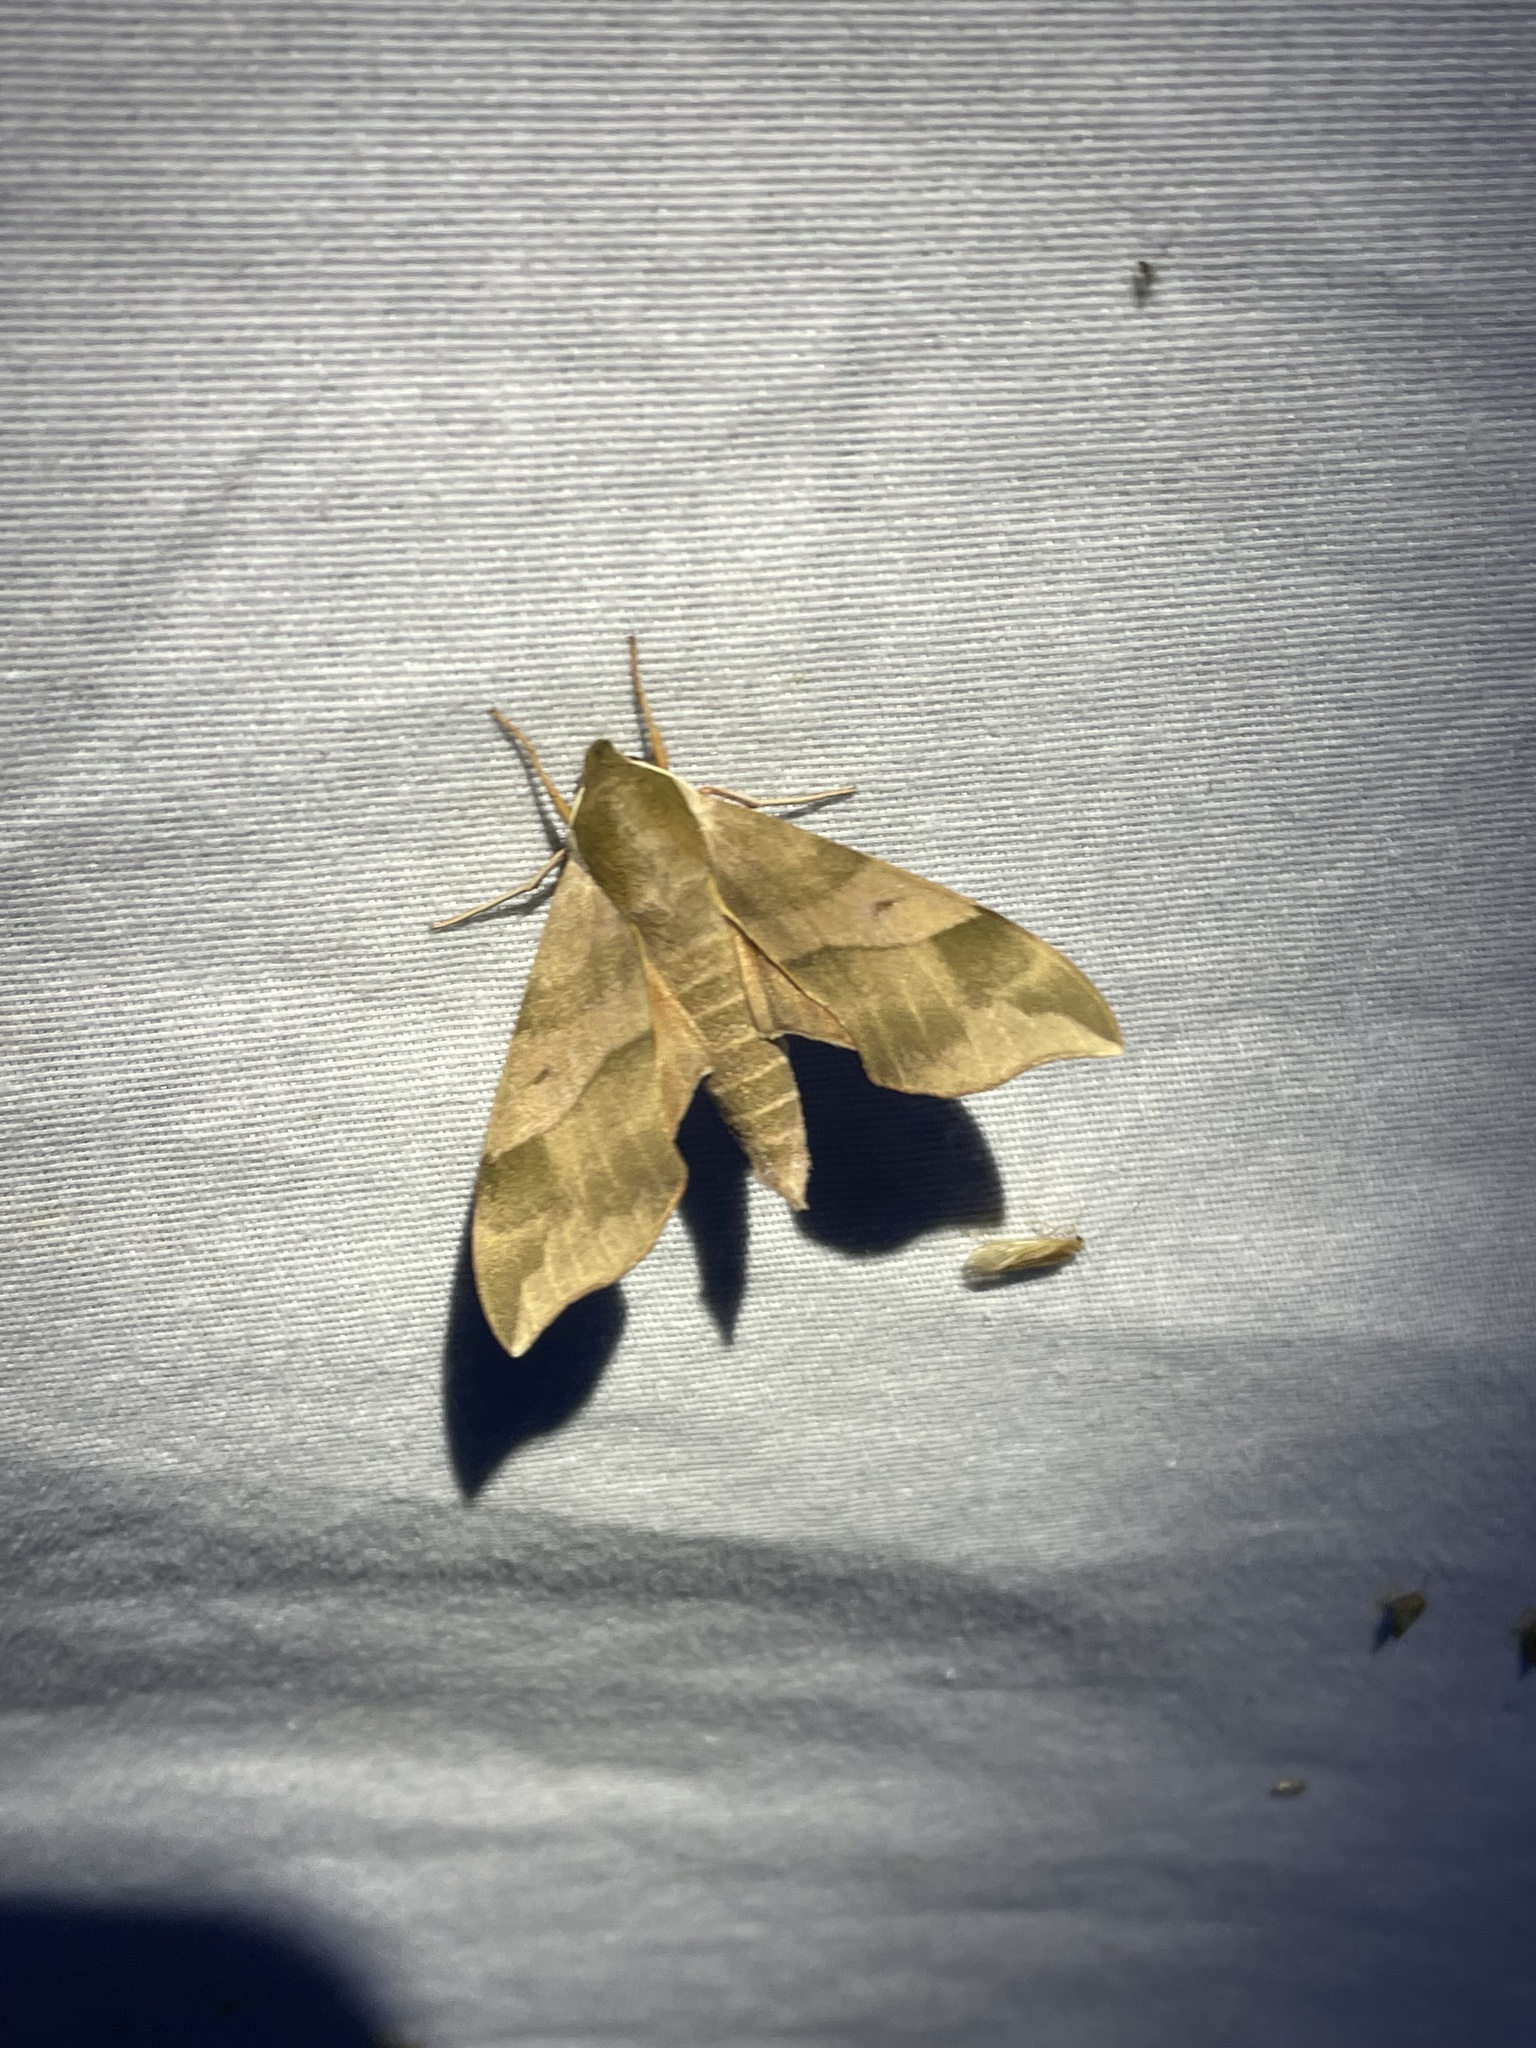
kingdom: Animalia
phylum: Arthropoda
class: Insecta
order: Lepidoptera
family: Sphingidae
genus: Darapsa
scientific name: Darapsa myron
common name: Hog sphinx
